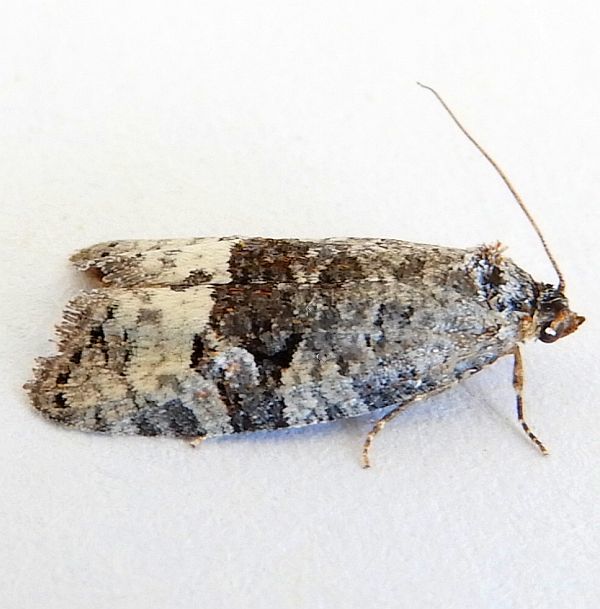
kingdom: Animalia
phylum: Arthropoda
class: Insecta
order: Lepidoptera
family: Tortricidae
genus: Apotomops
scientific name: Apotomops wellingtoniana
